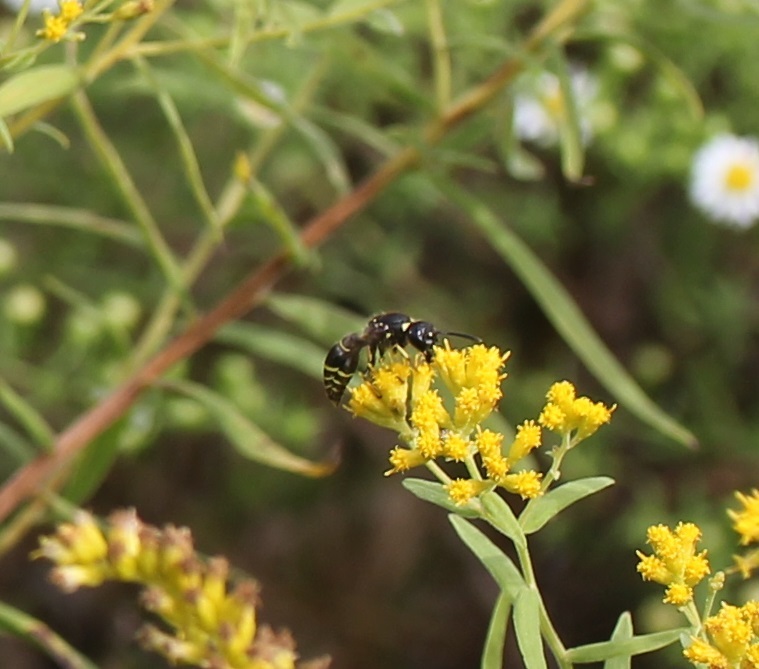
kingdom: Animalia
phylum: Arthropoda
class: Insecta
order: Hymenoptera
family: Vespidae
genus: Ancistrocerus
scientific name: Ancistrocerus
